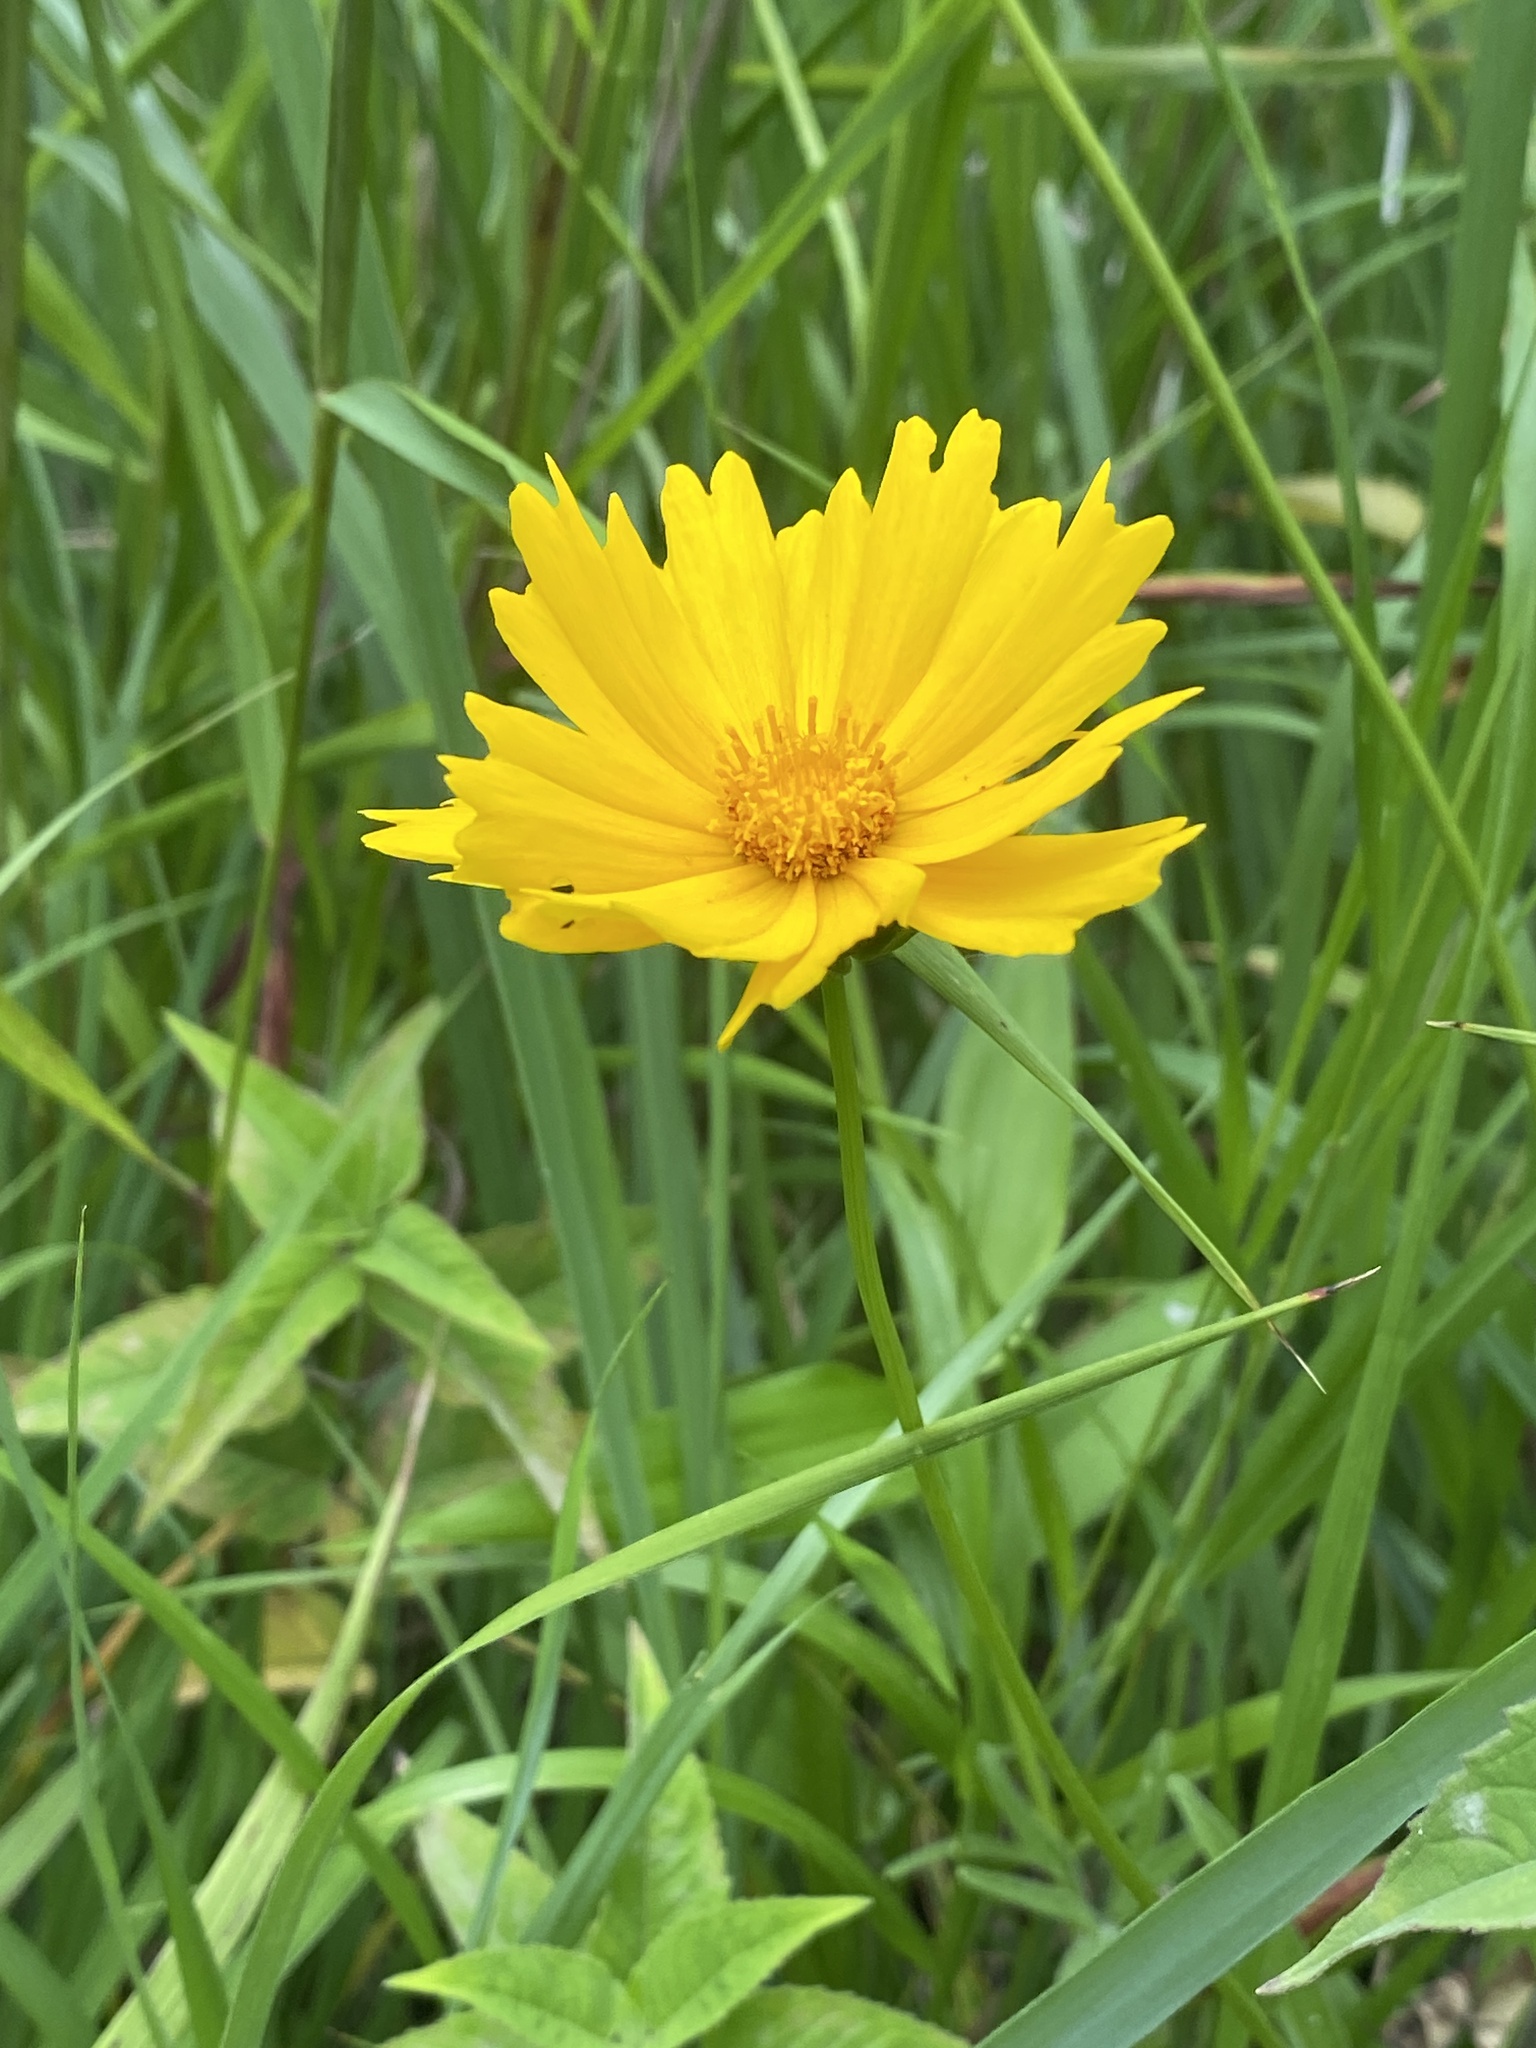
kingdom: Plantae
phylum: Tracheophyta
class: Magnoliopsida
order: Asterales
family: Asteraceae
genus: Coreopsis
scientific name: Coreopsis lanceolata
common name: Garden coreopsis
